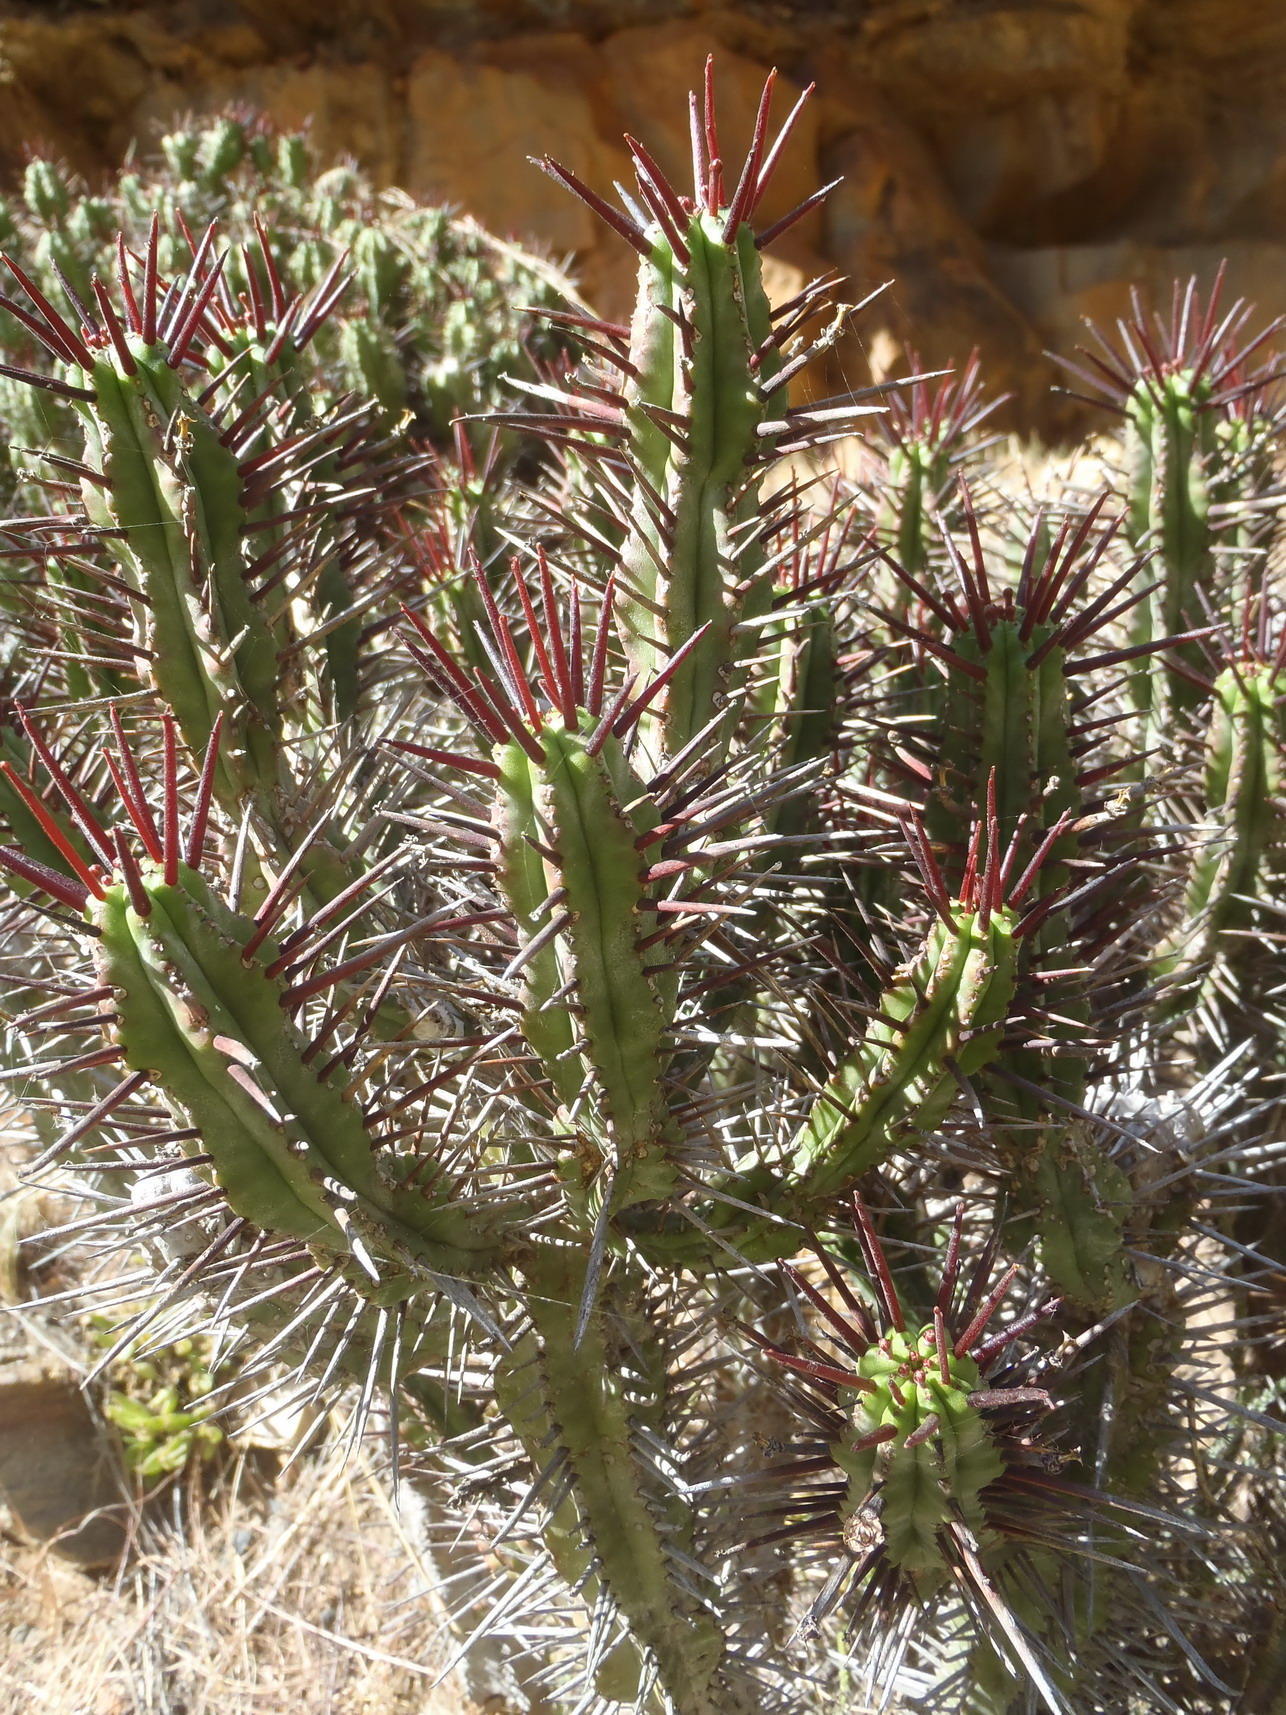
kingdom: Plantae
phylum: Tracheophyta
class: Magnoliopsida
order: Malpighiales
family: Euphorbiaceae
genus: Euphorbia
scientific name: Euphorbia heptagona
